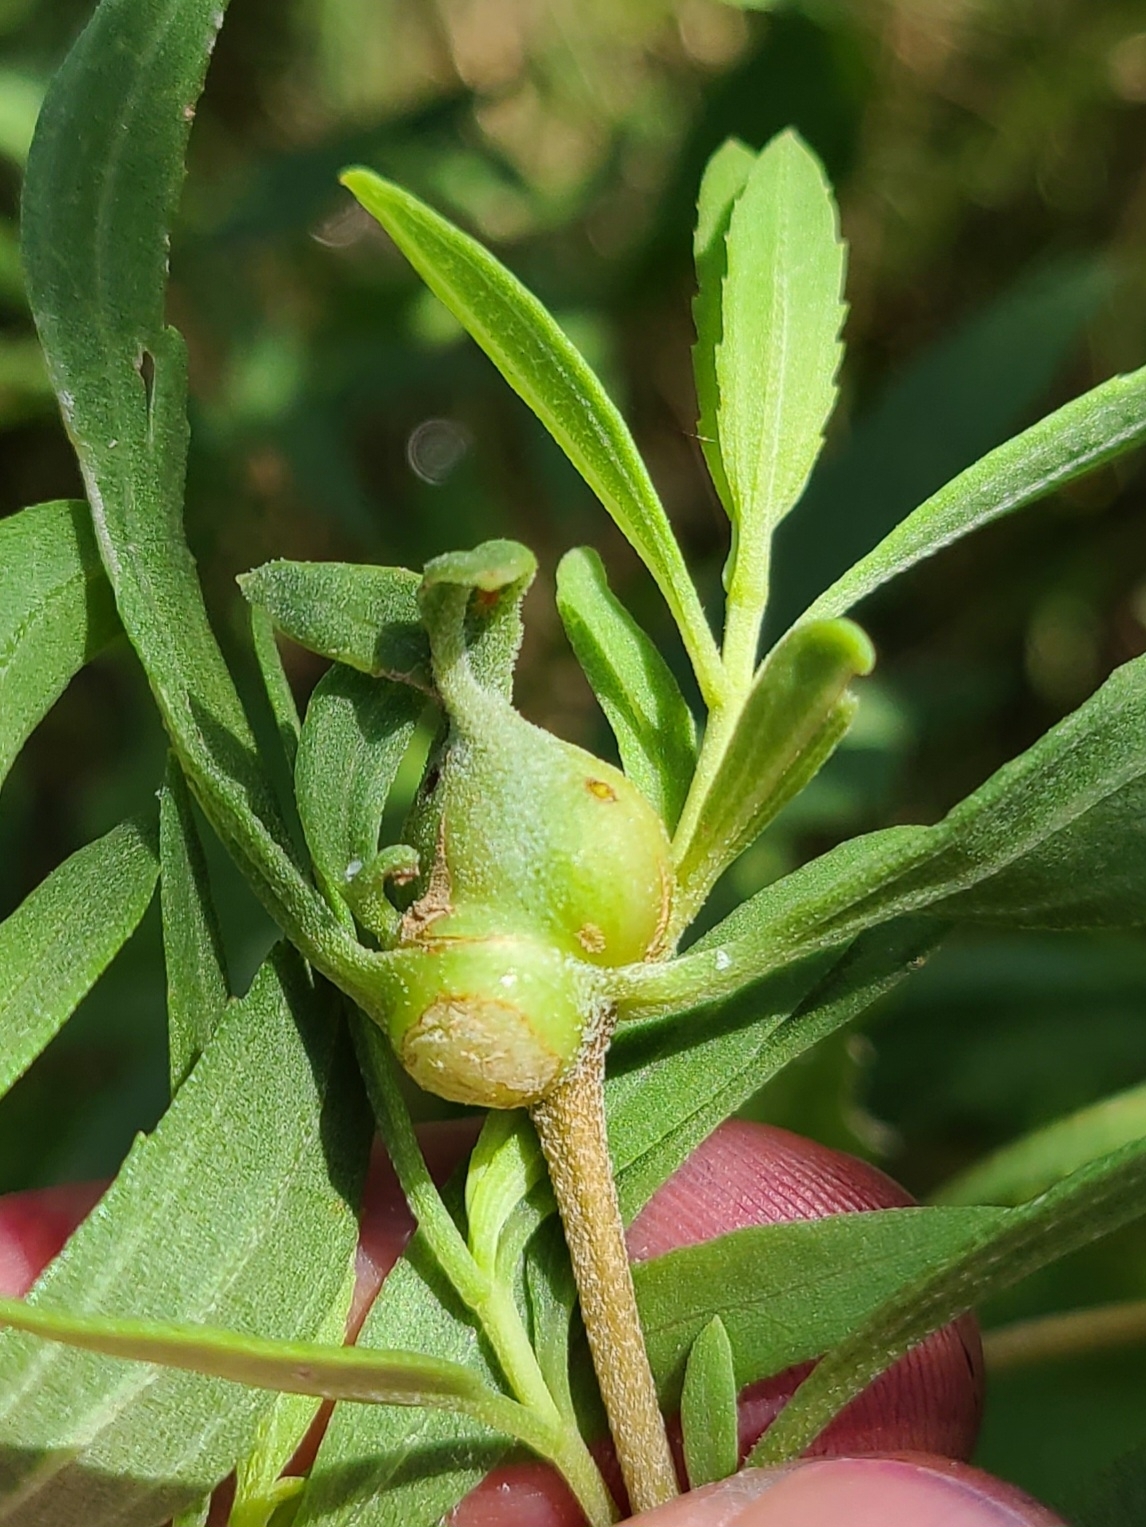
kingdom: Animalia
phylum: Arthropoda
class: Insecta
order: Diptera
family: Cecidomyiidae
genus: Neolasioptera
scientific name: Neolasioptera lathami
